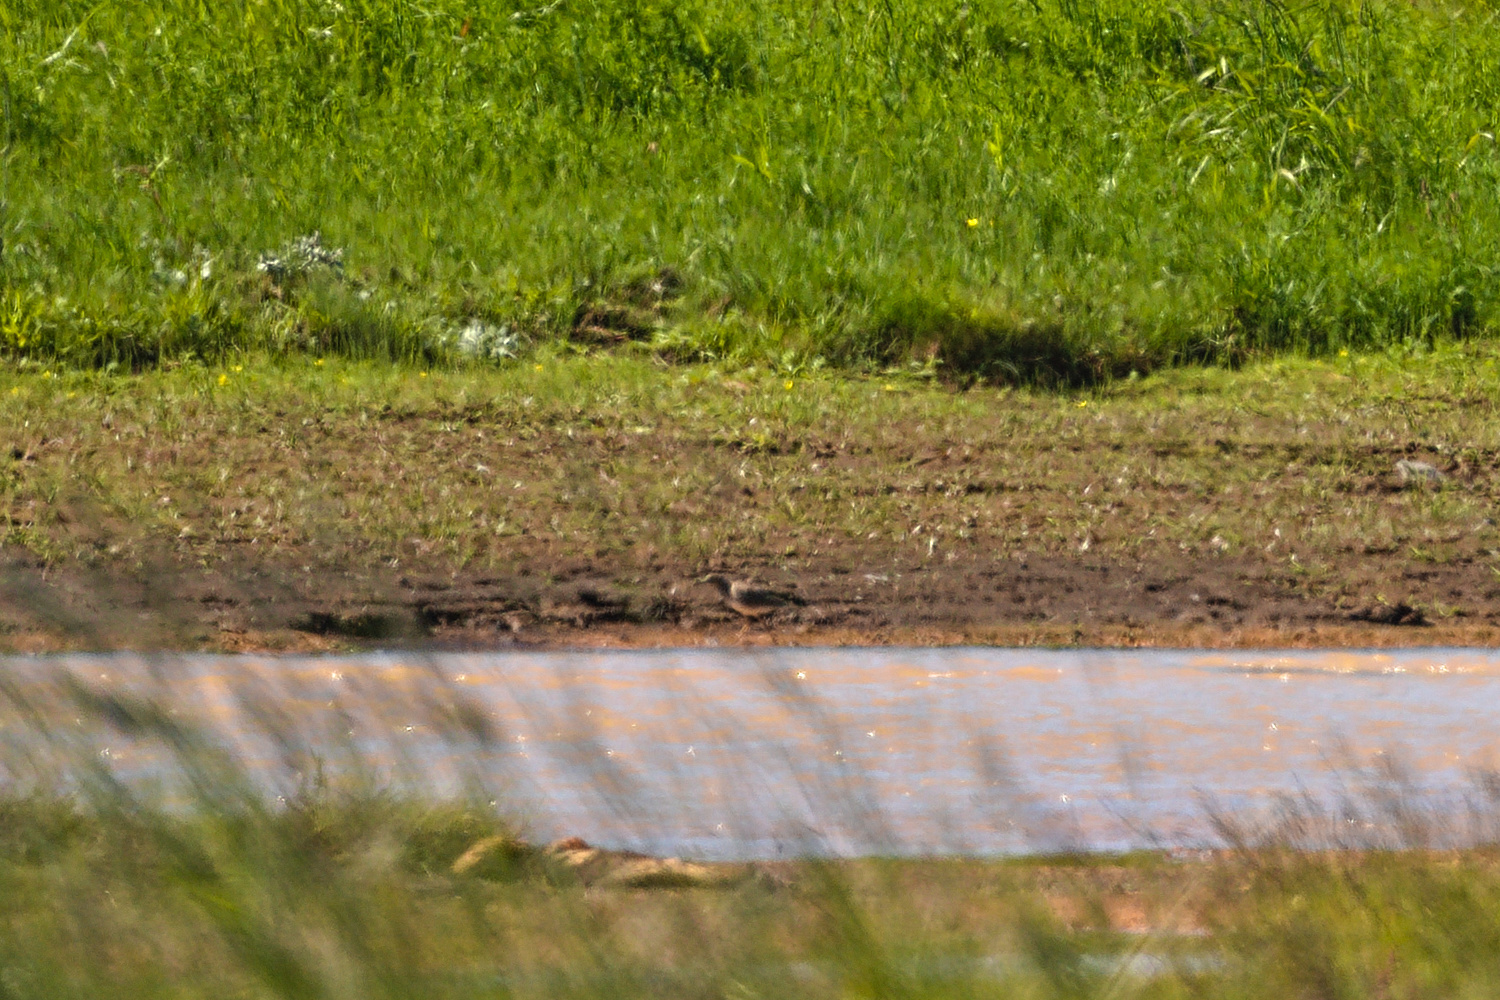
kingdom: Animalia
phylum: Chordata
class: Aves
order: Charadriiformes
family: Scolopacidae
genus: Tringa
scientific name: Tringa totanus
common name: Common redshank
